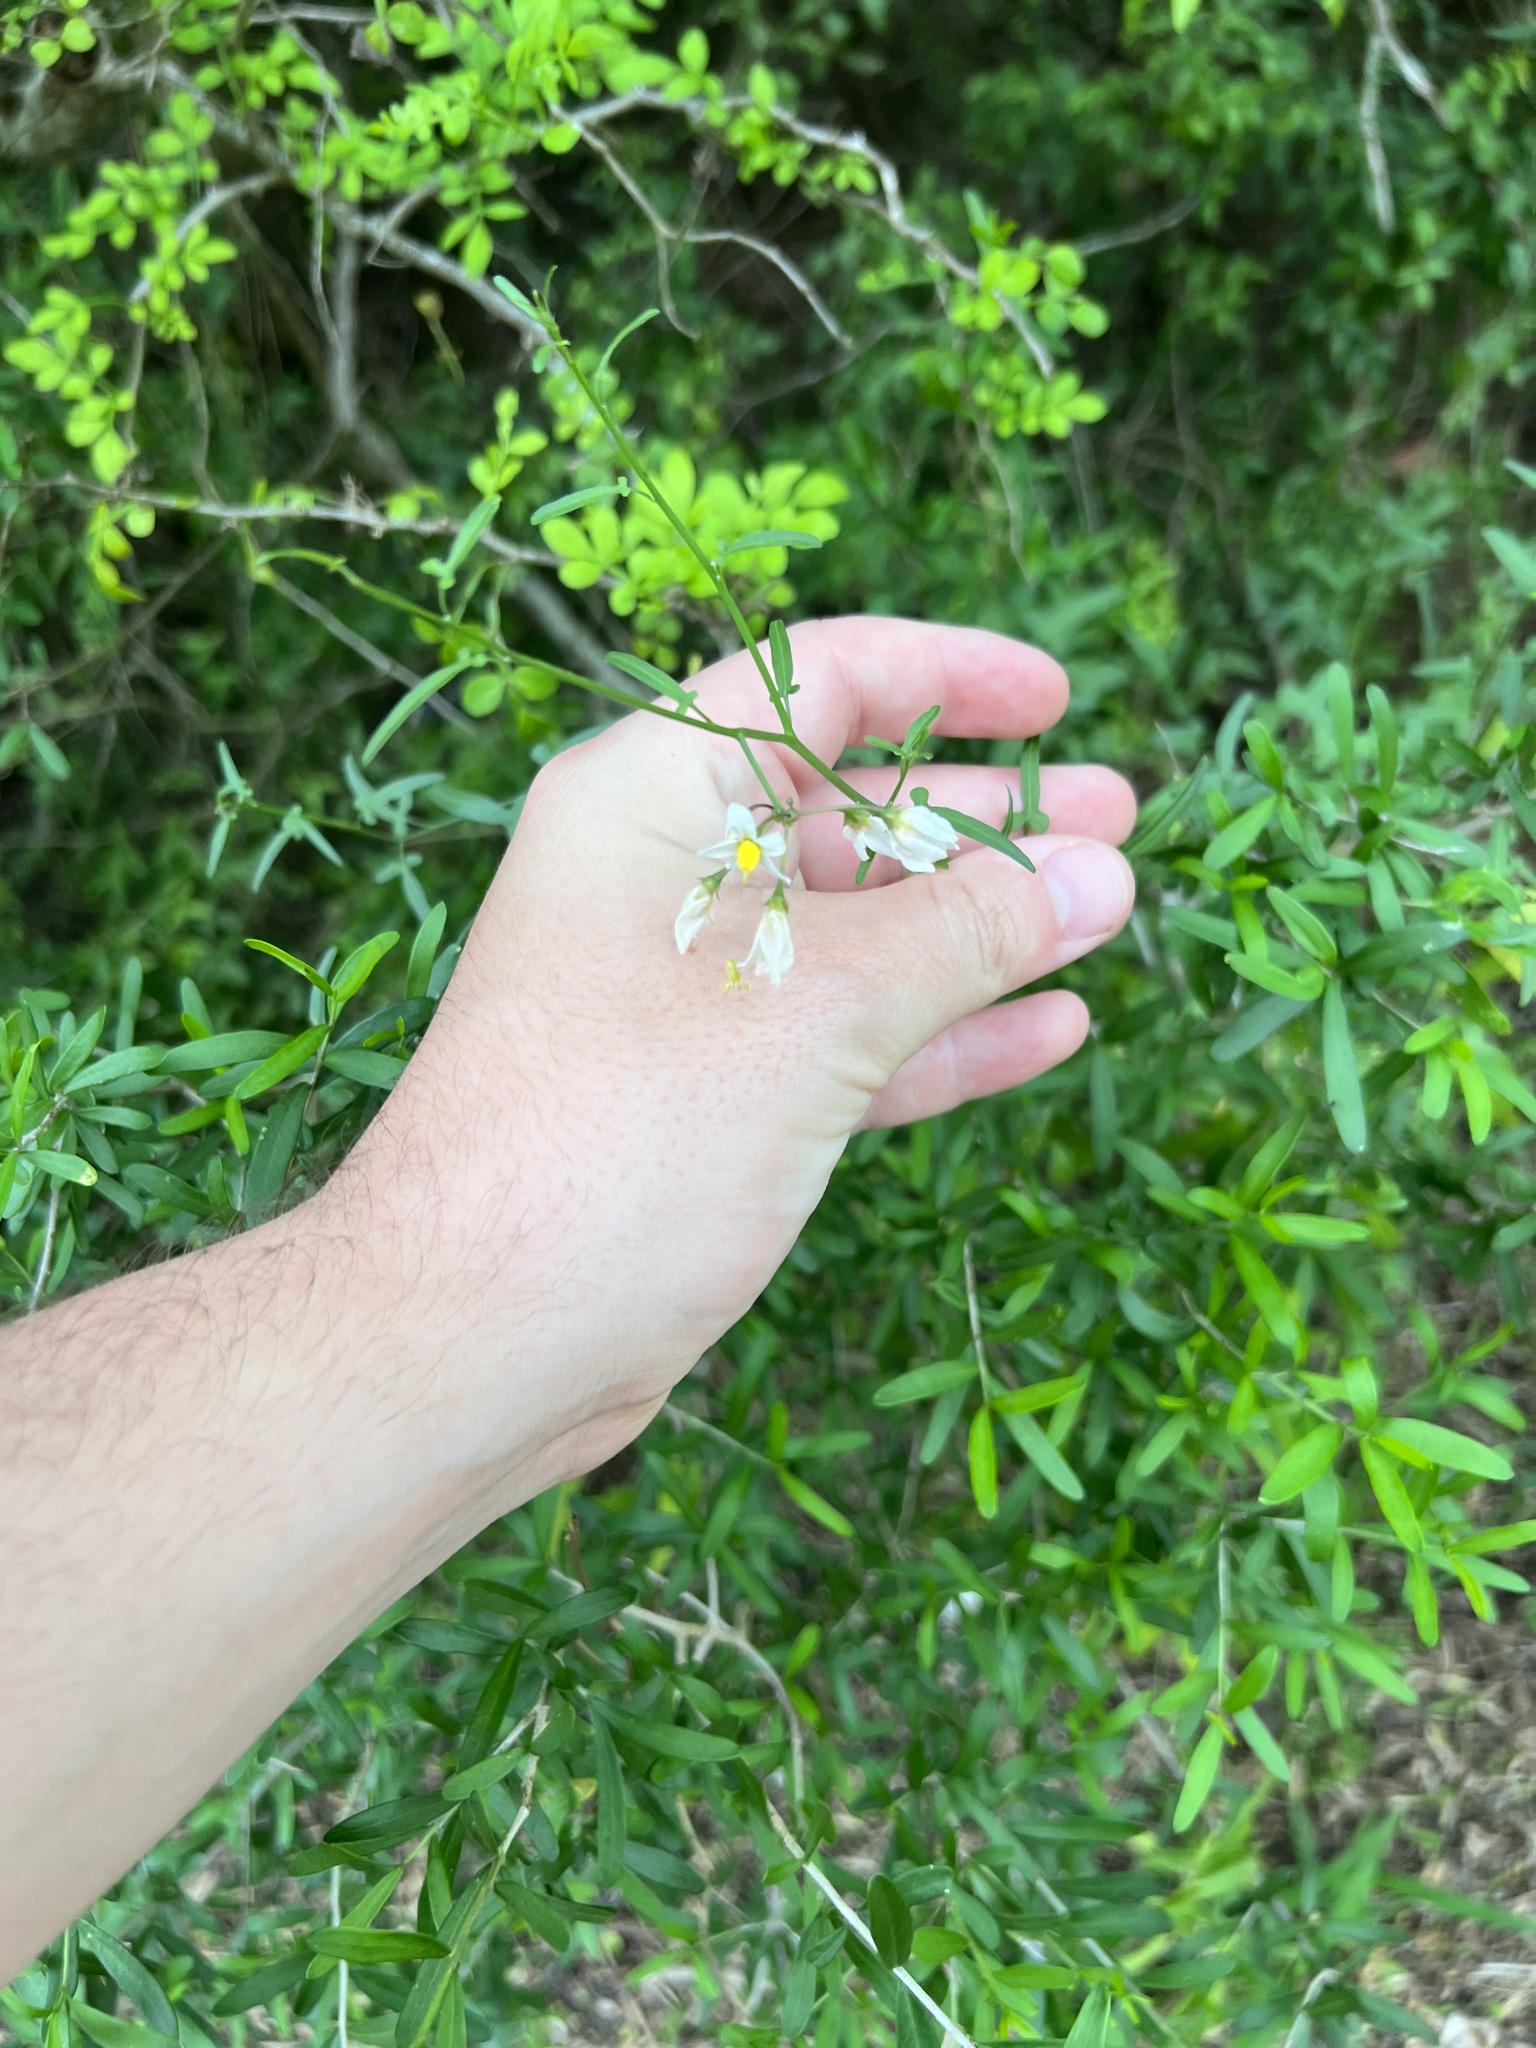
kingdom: Plantae
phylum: Tracheophyta
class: Magnoliopsida
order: Solanales
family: Solanaceae
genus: Solanum
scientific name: Solanum triquetrum
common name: Texas nightshade
